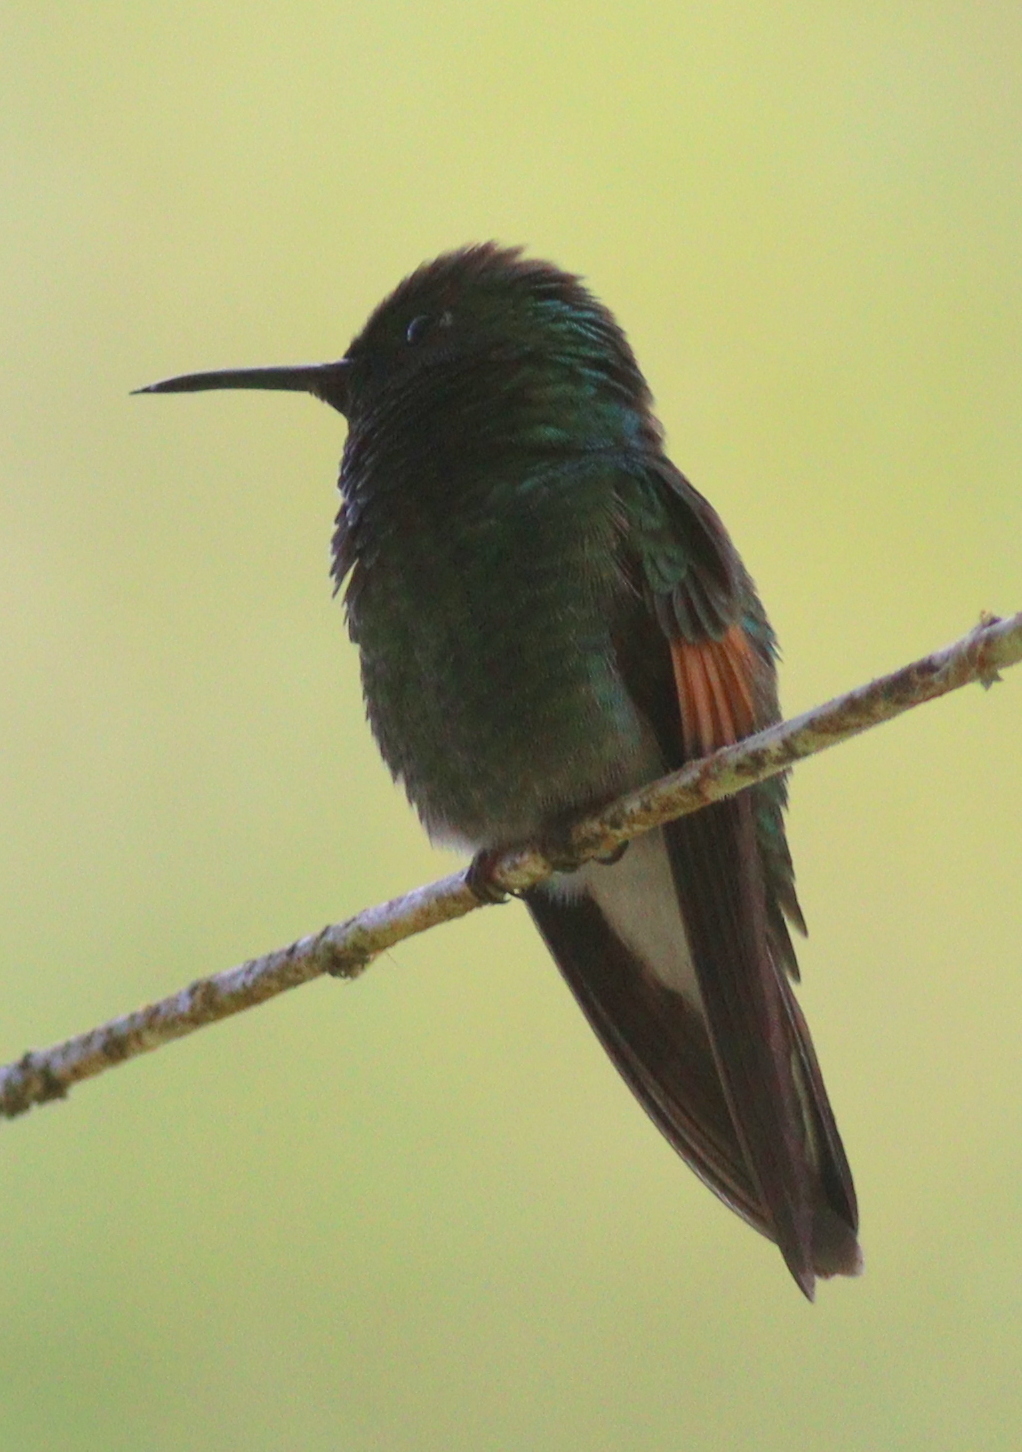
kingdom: Animalia
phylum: Chordata
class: Aves
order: Apodiformes
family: Trochilidae
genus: Eupherusa
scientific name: Eupherusa eximia
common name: Stripe-tailed hummingbird
